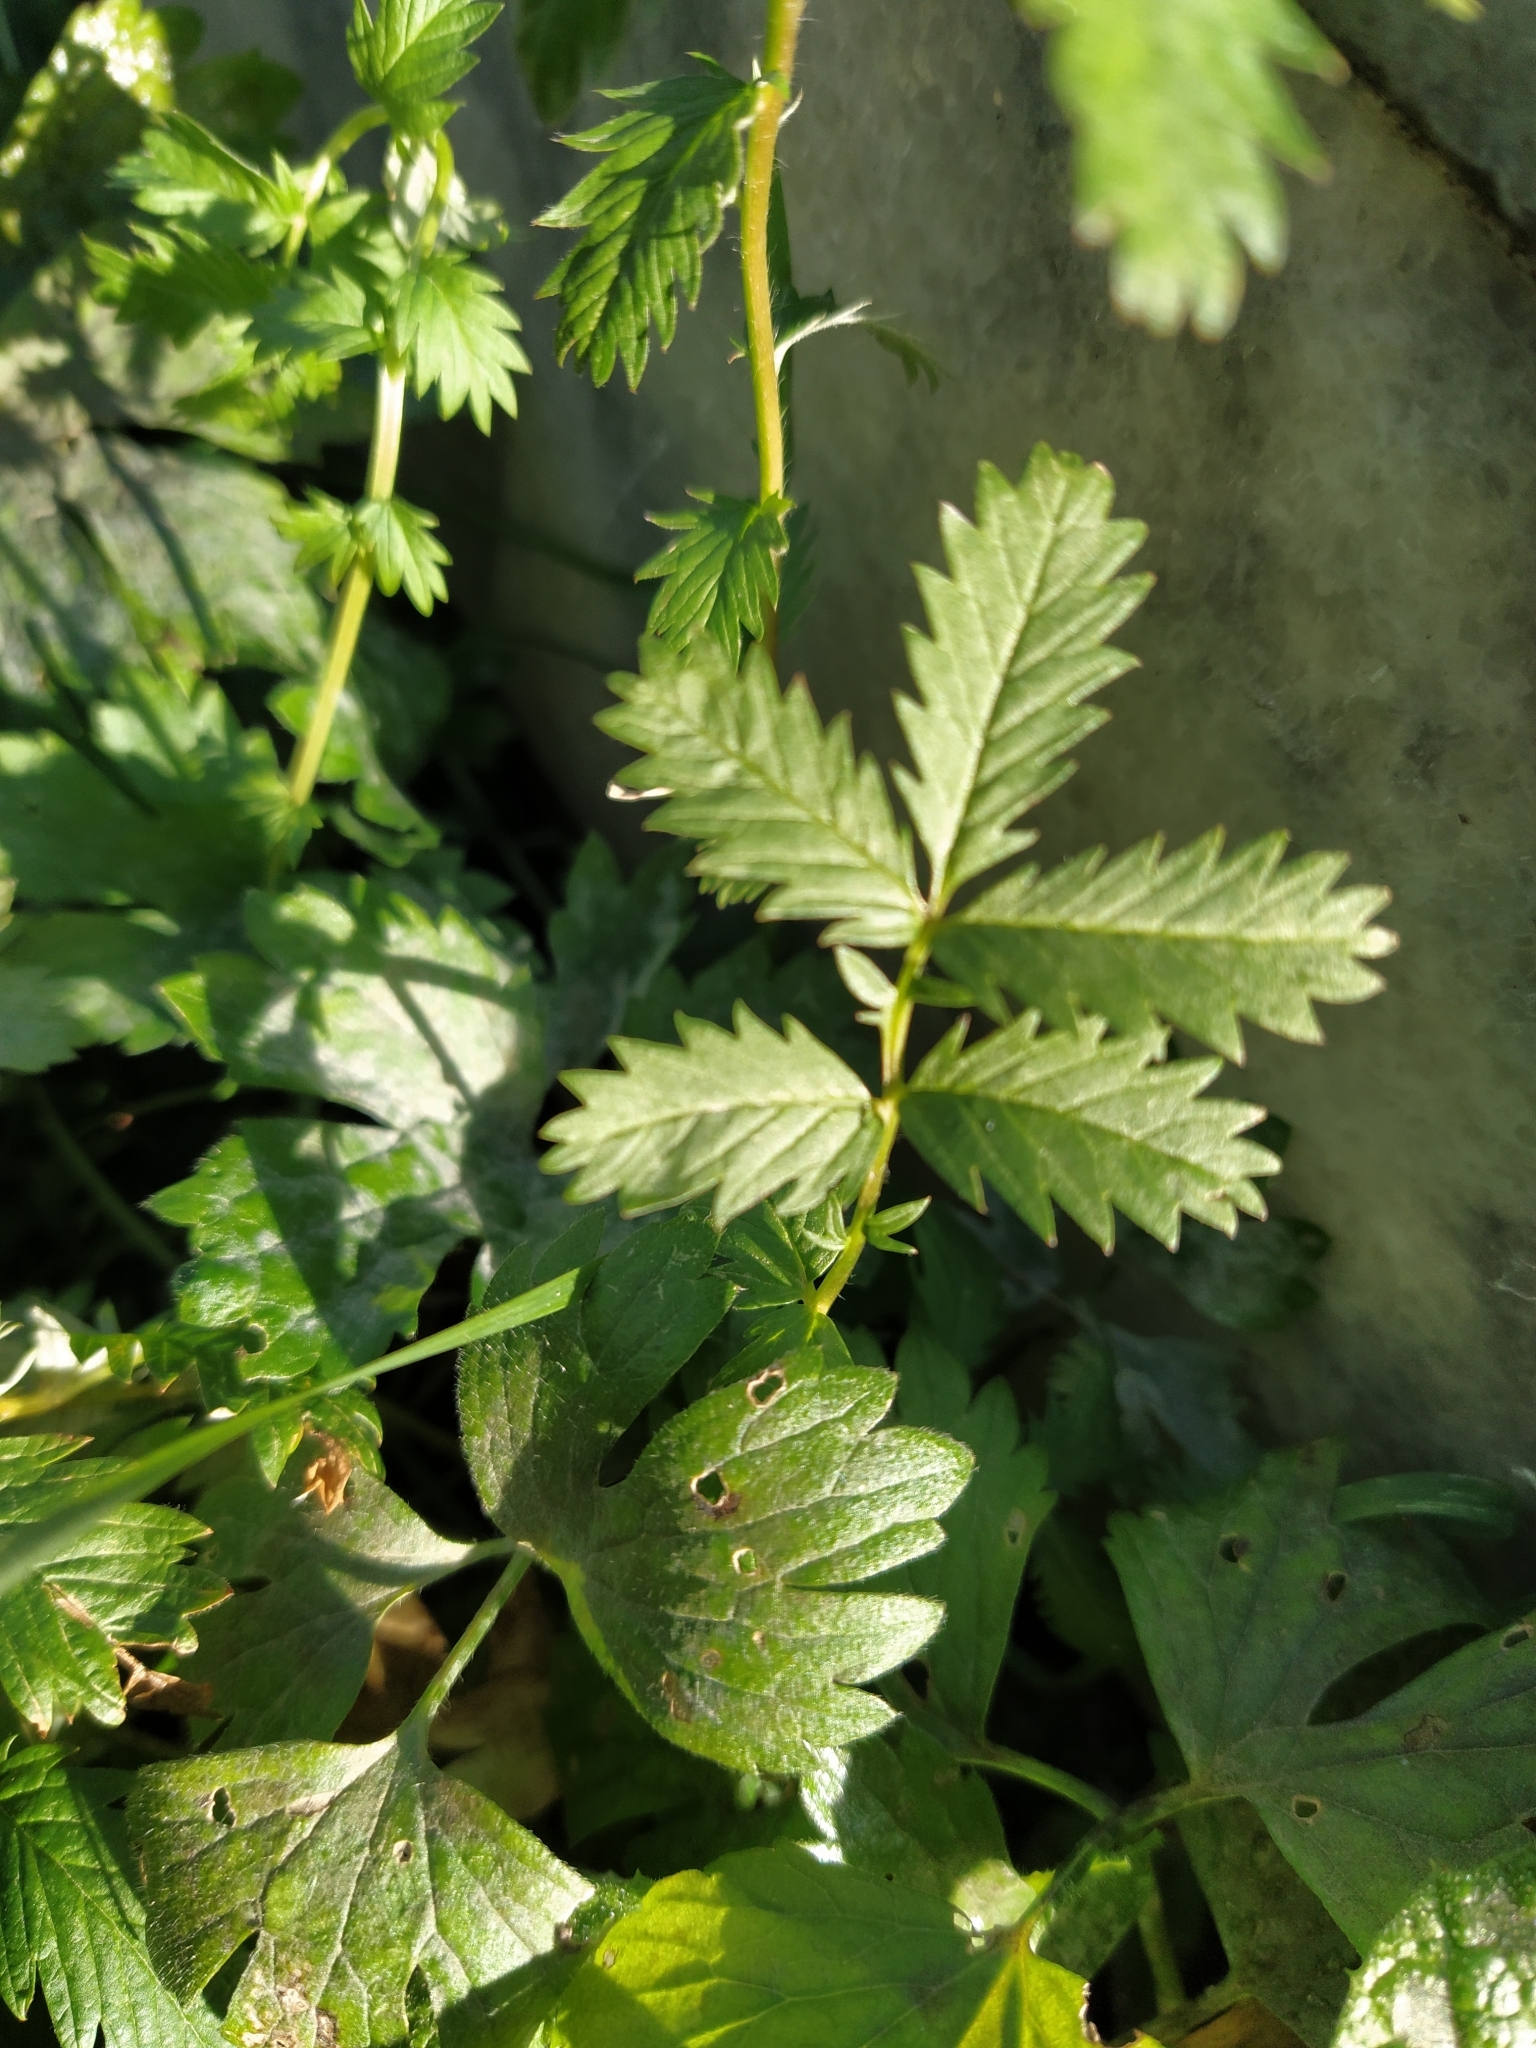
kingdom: Plantae
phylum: Tracheophyta
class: Magnoliopsida
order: Rosales
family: Rosaceae
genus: Argentina
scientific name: Argentina anserina
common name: Common silverweed
